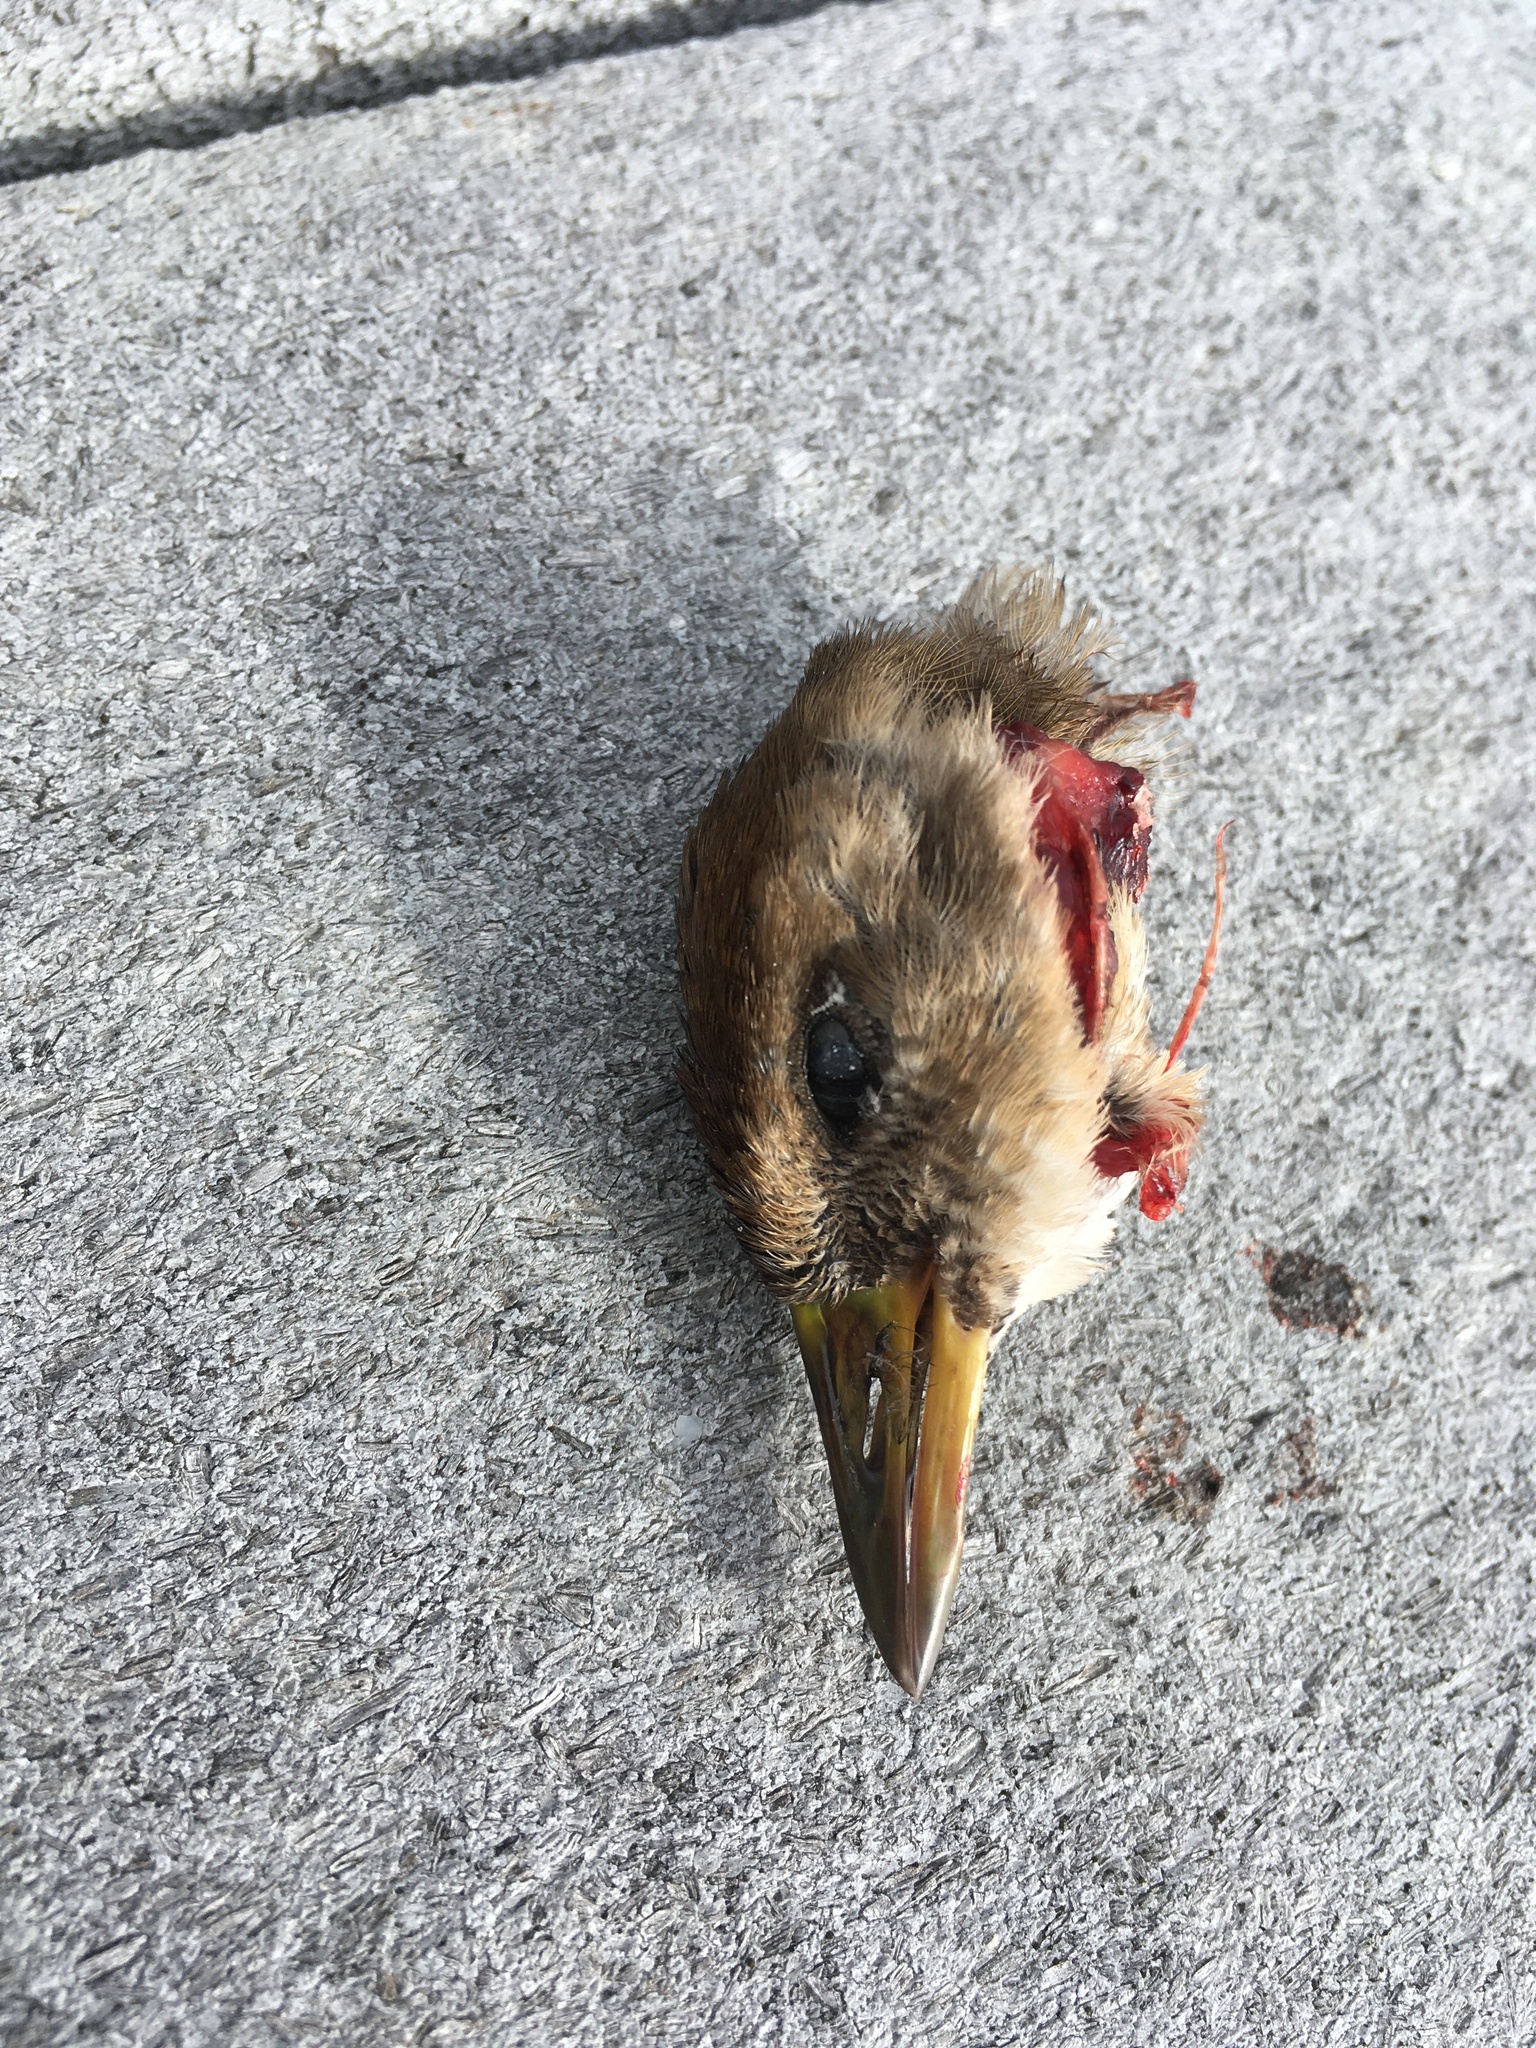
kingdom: Animalia
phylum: Chordata
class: Aves
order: Gruiformes
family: Rallidae
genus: Porzana
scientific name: Porzana carolina
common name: Sora
